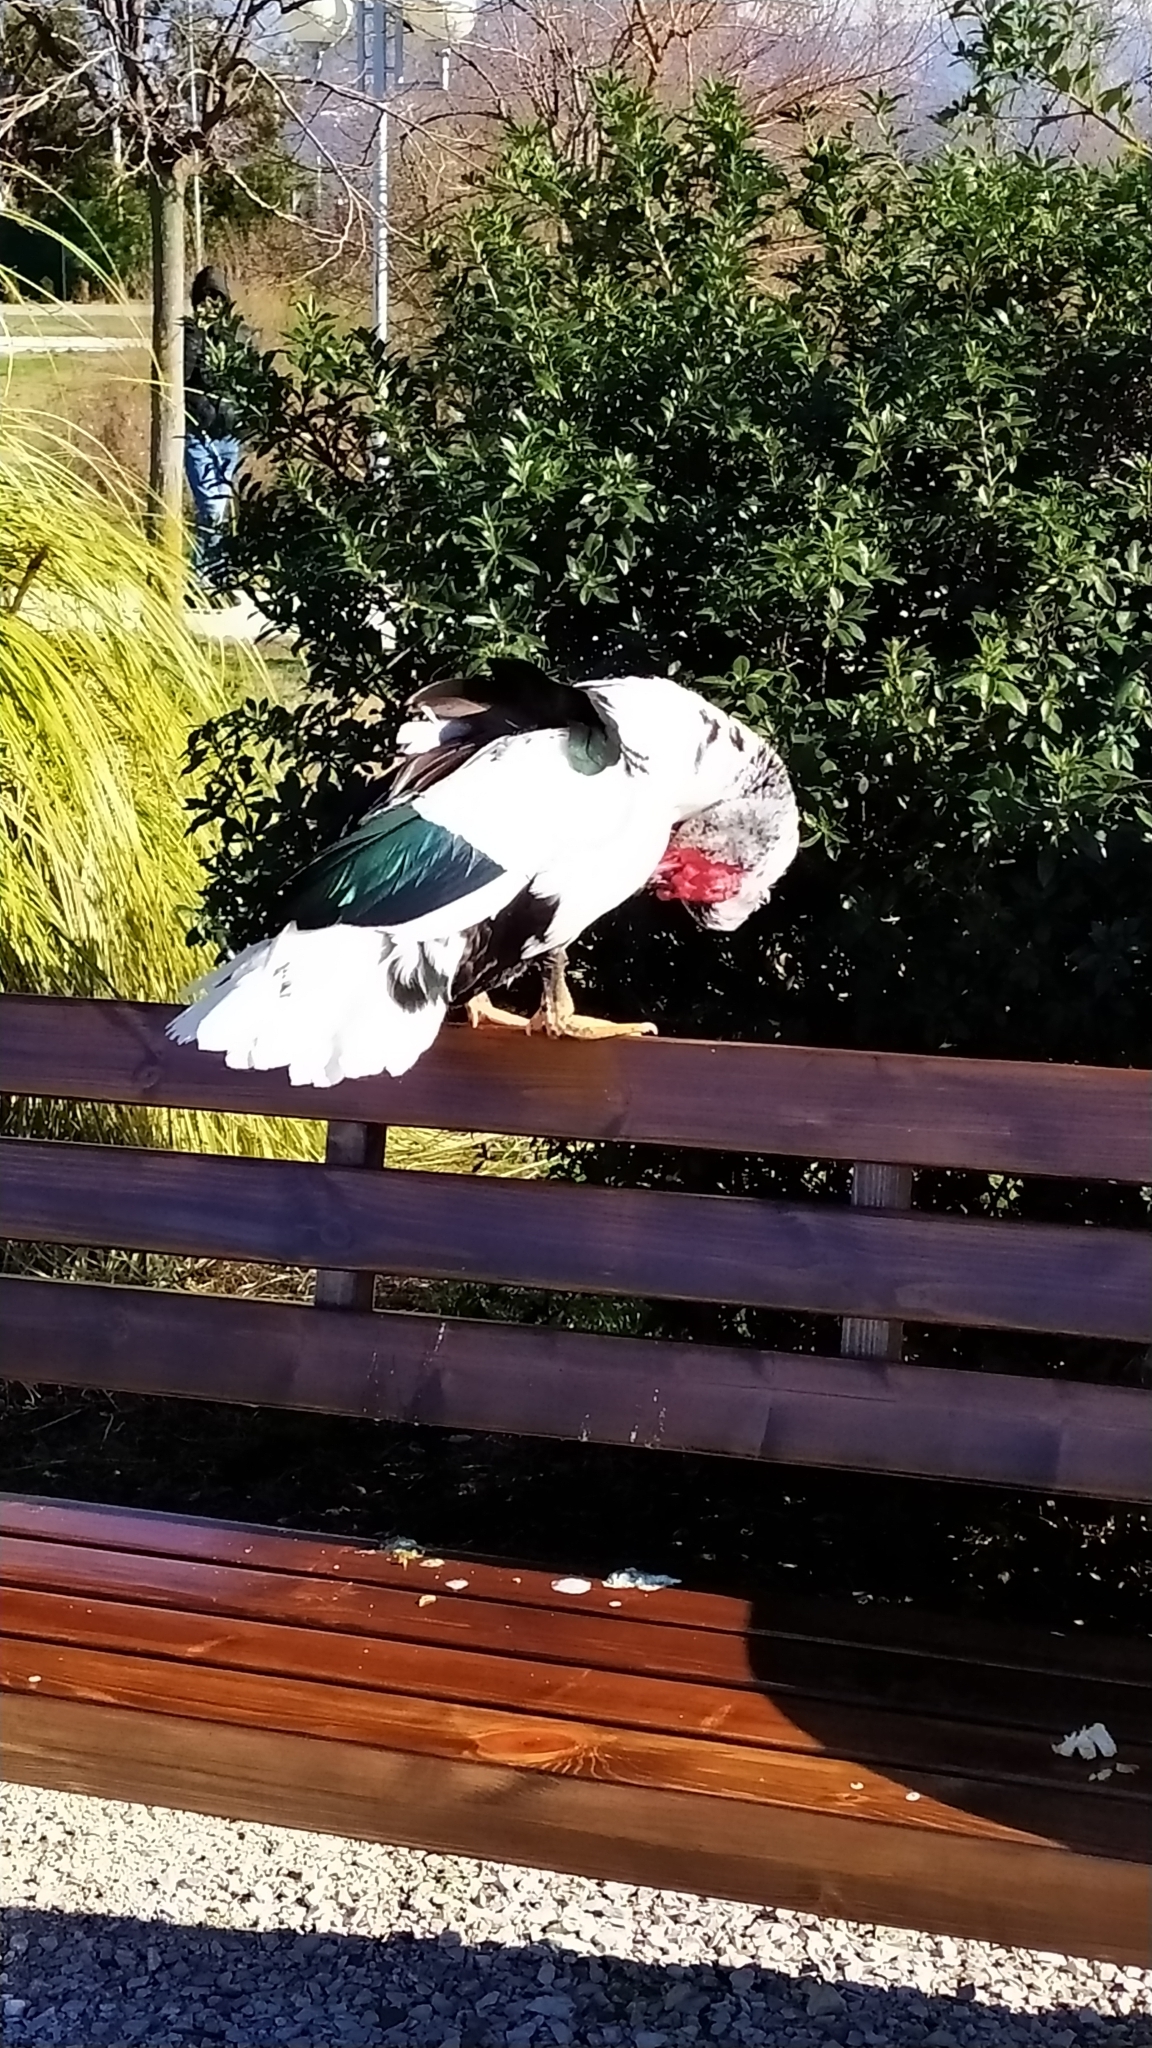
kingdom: Animalia
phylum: Chordata
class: Aves
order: Anseriformes
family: Anatidae
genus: Cairina
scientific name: Cairina moschata
